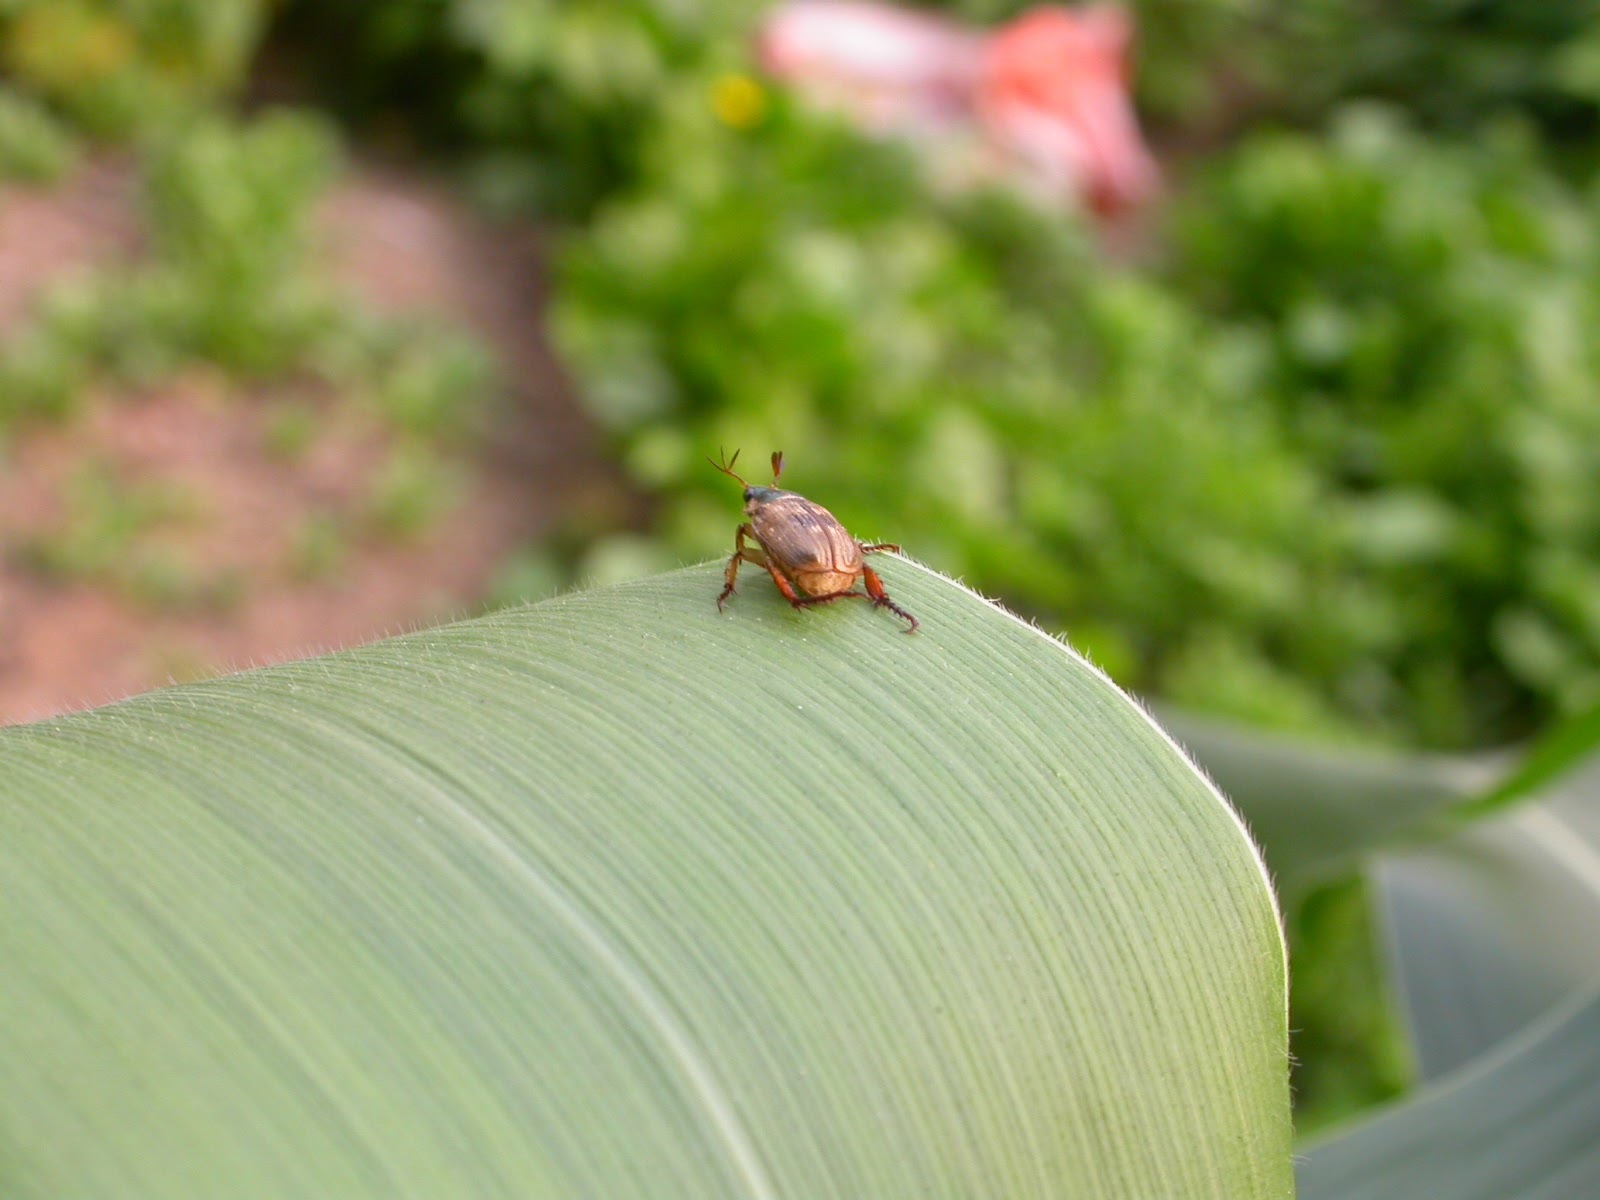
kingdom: Animalia
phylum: Arthropoda
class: Insecta
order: Coleoptera
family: Scarabaeidae
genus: Exomala
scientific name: Exomala orientalis
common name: Oriental beetle
